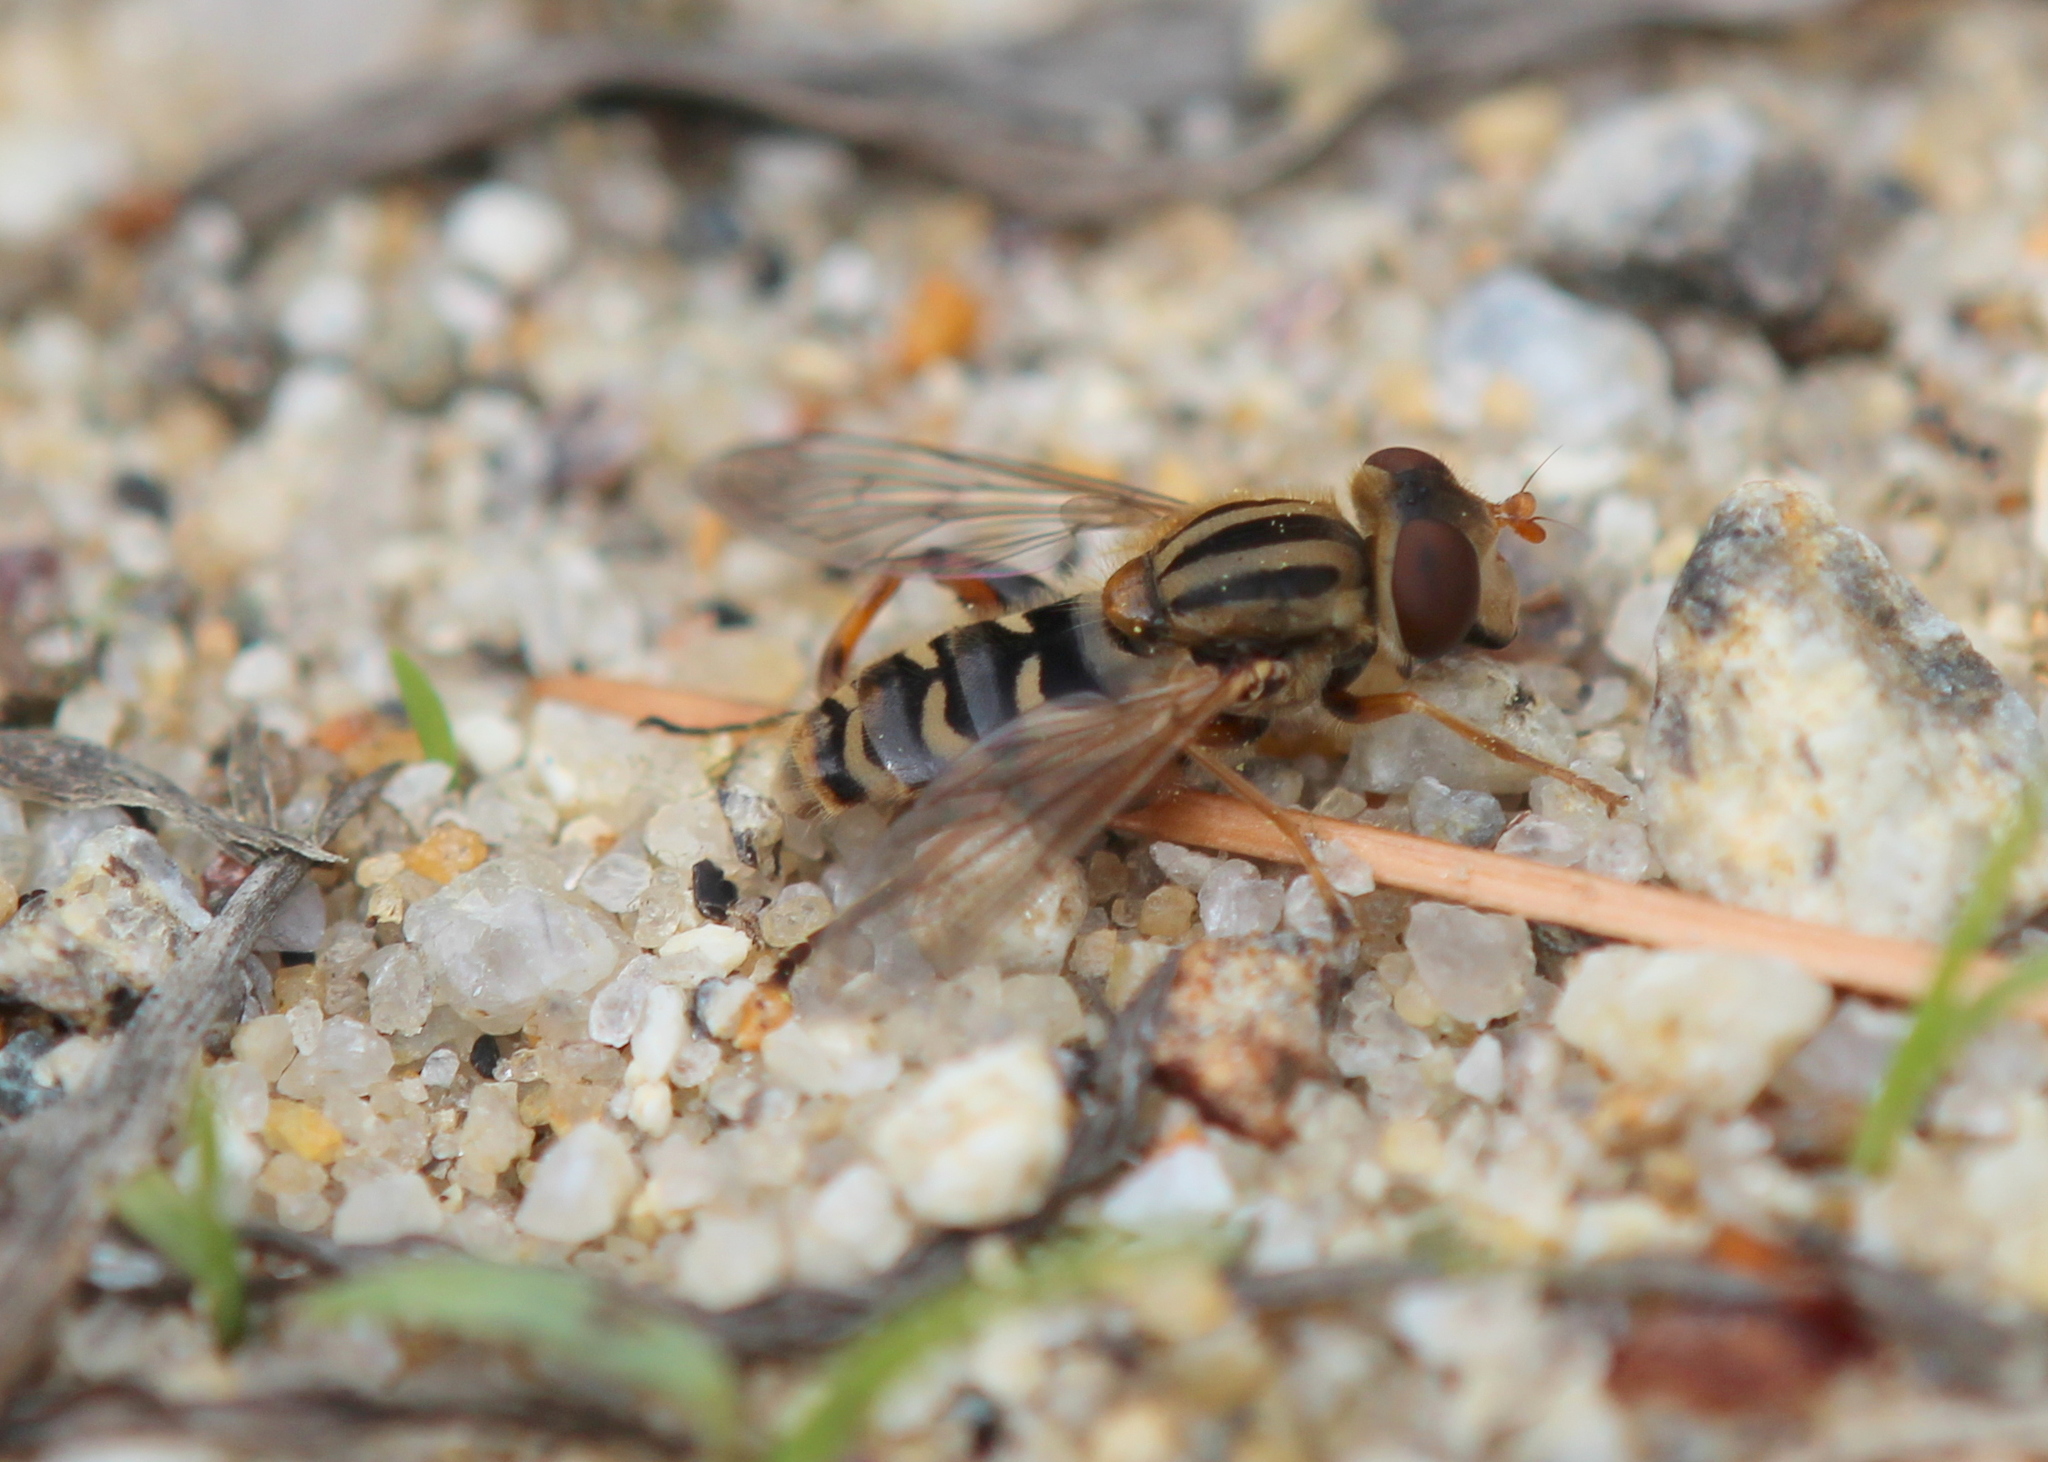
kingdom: Animalia
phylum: Arthropoda
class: Insecta
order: Diptera
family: Syrphidae
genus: Anasimyia
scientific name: Anasimyia
